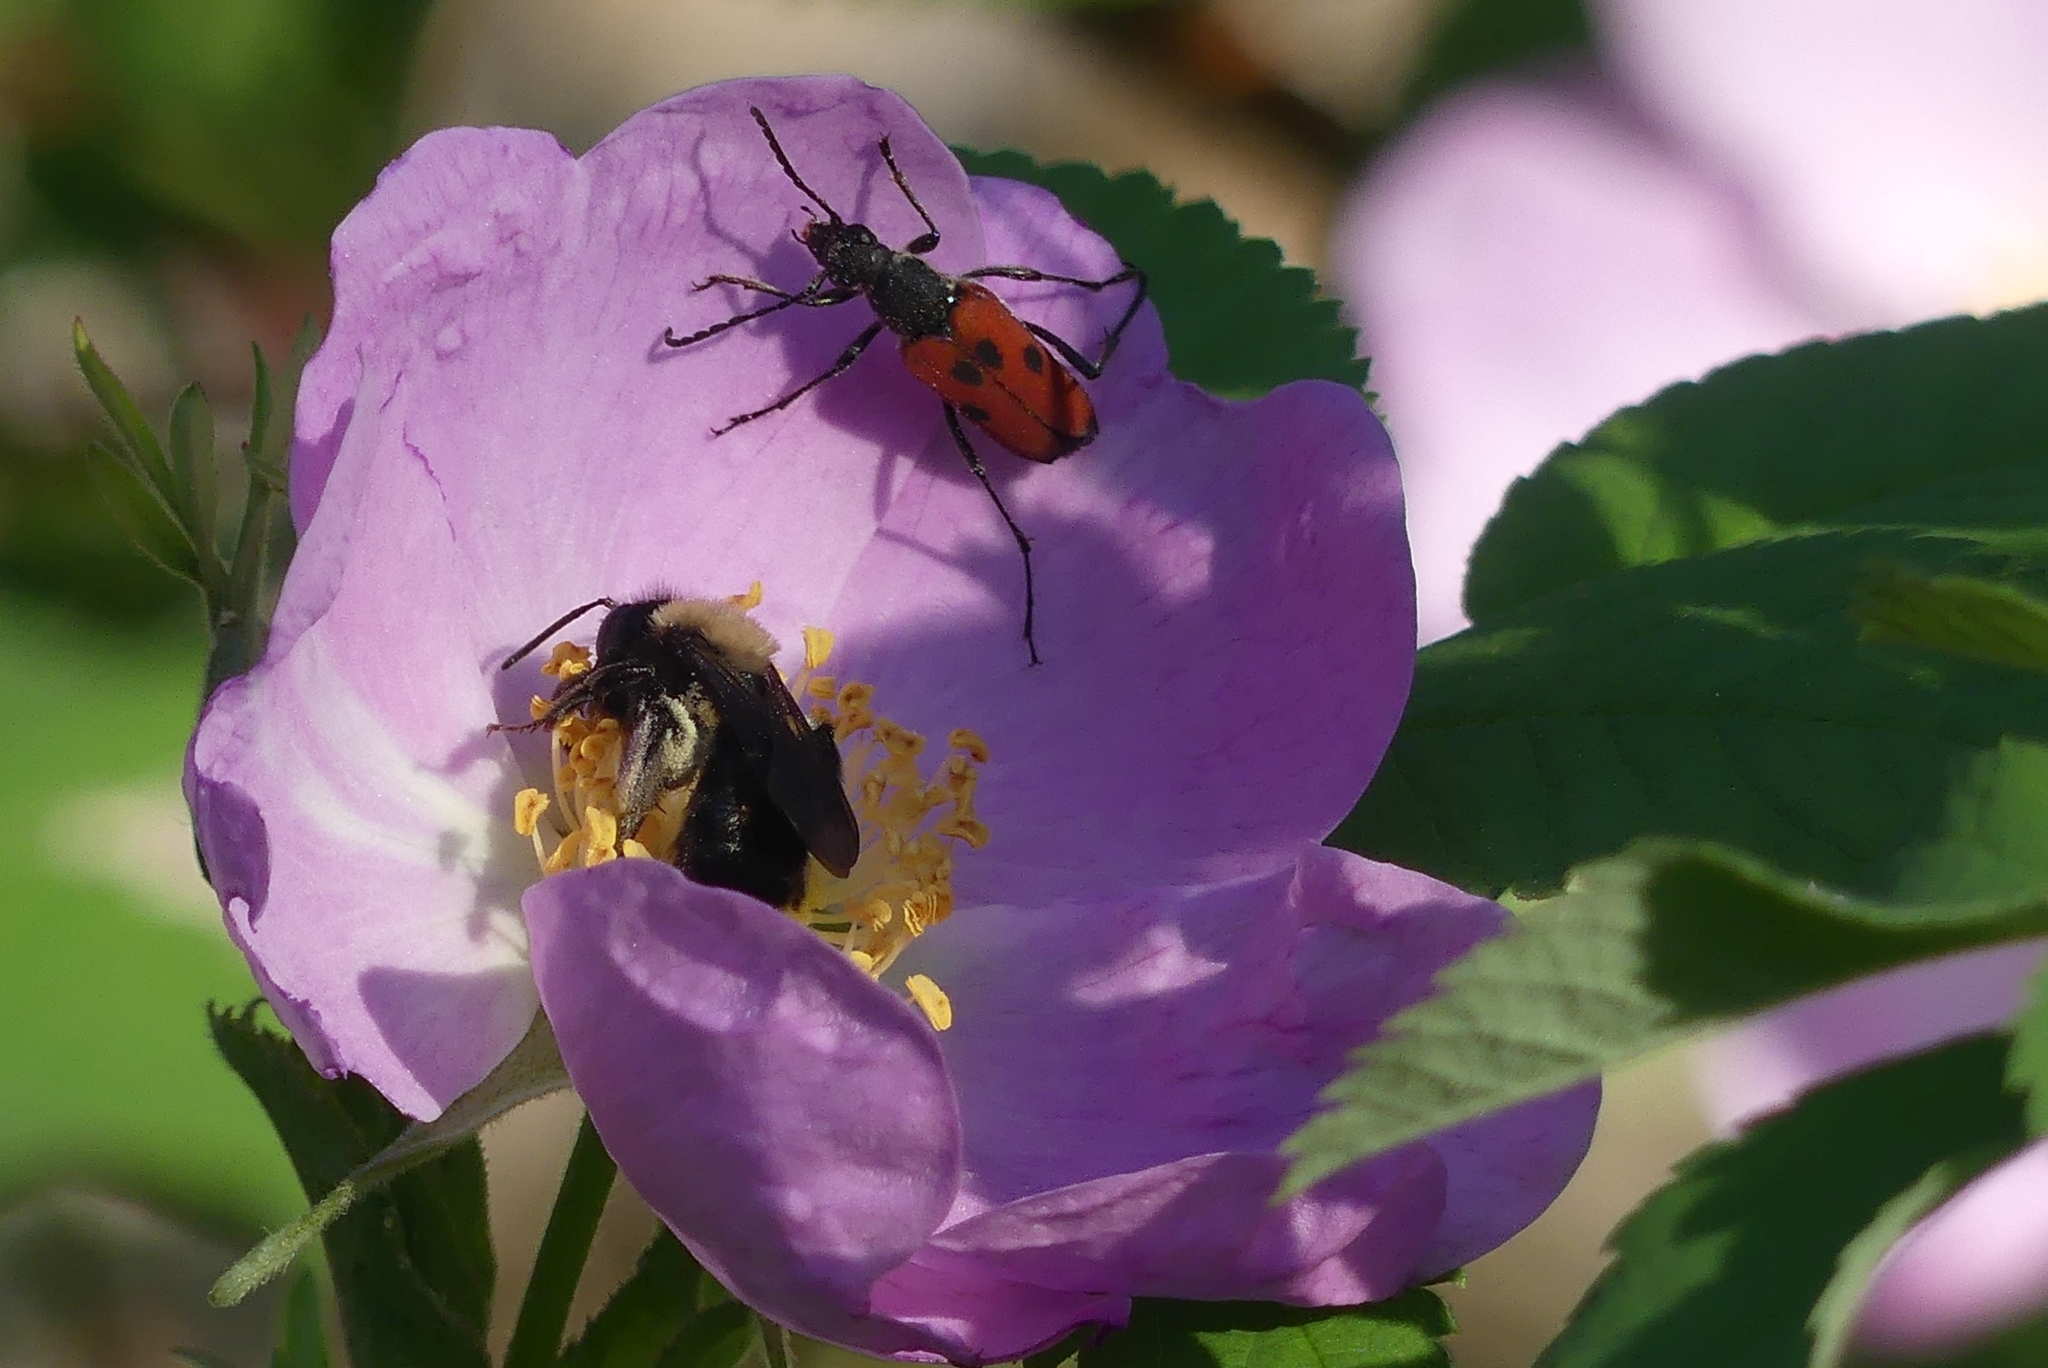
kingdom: Animalia
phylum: Arthropoda
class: Insecta
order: Coleoptera
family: Cerambycidae
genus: Anastrangalia
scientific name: Anastrangalia laetifica
